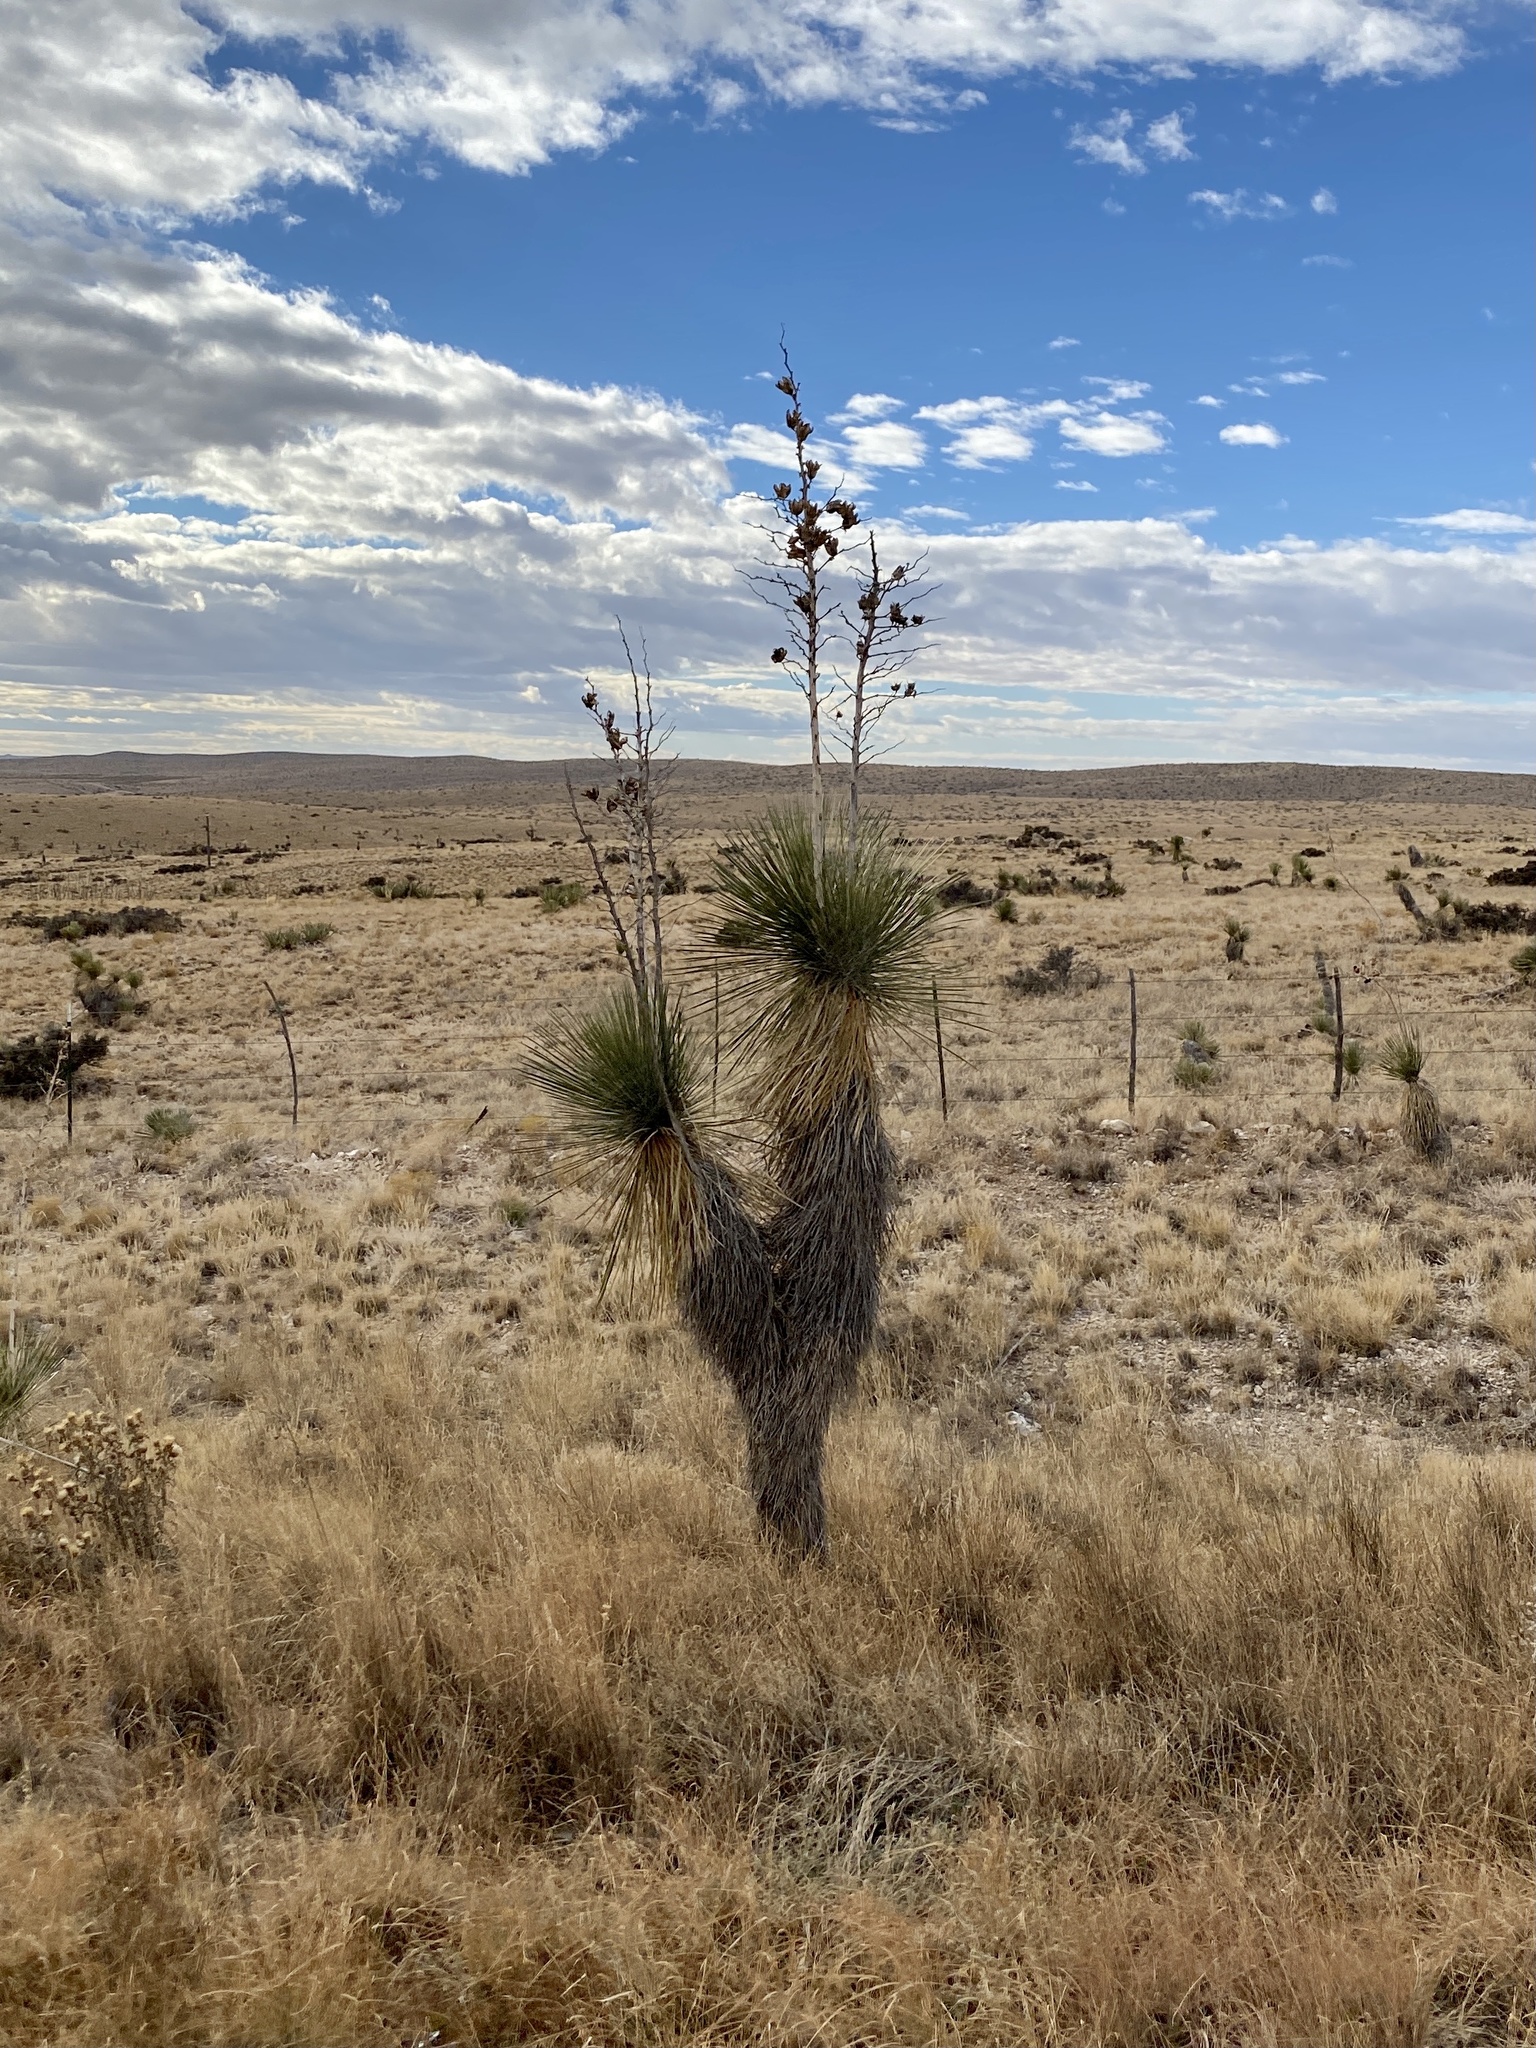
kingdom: Plantae
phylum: Tracheophyta
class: Liliopsida
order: Asparagales
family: Asparagaceae
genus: Yucca
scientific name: Yucca elata
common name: Palmella
